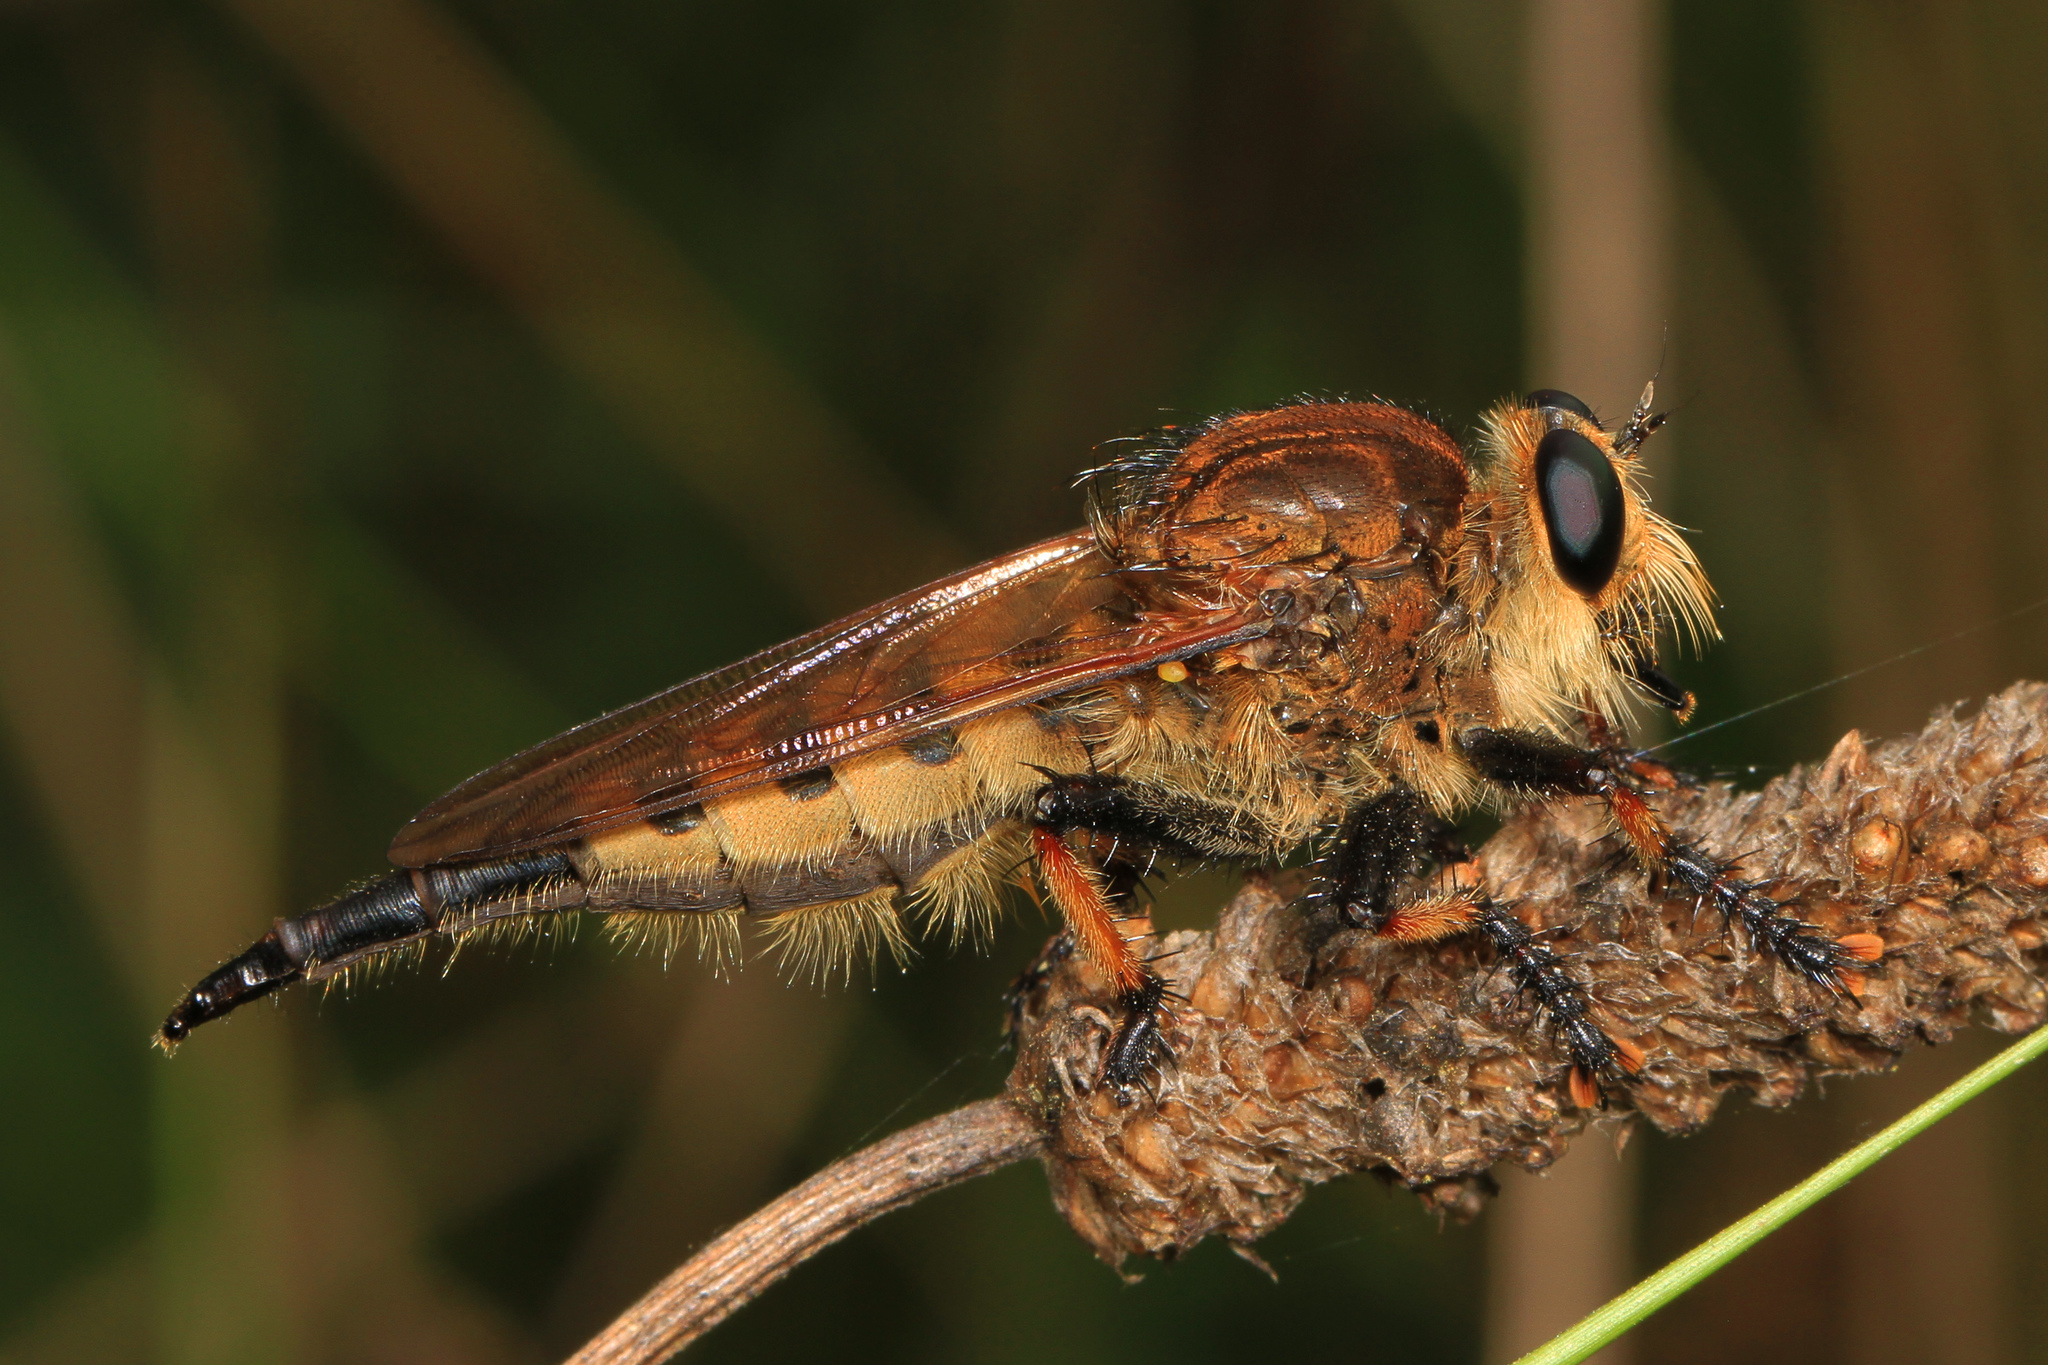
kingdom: Animalia
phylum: Arthropoda
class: Insecta
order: Diptera
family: Asilidae
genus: Promachus
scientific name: Promachus rufipes
